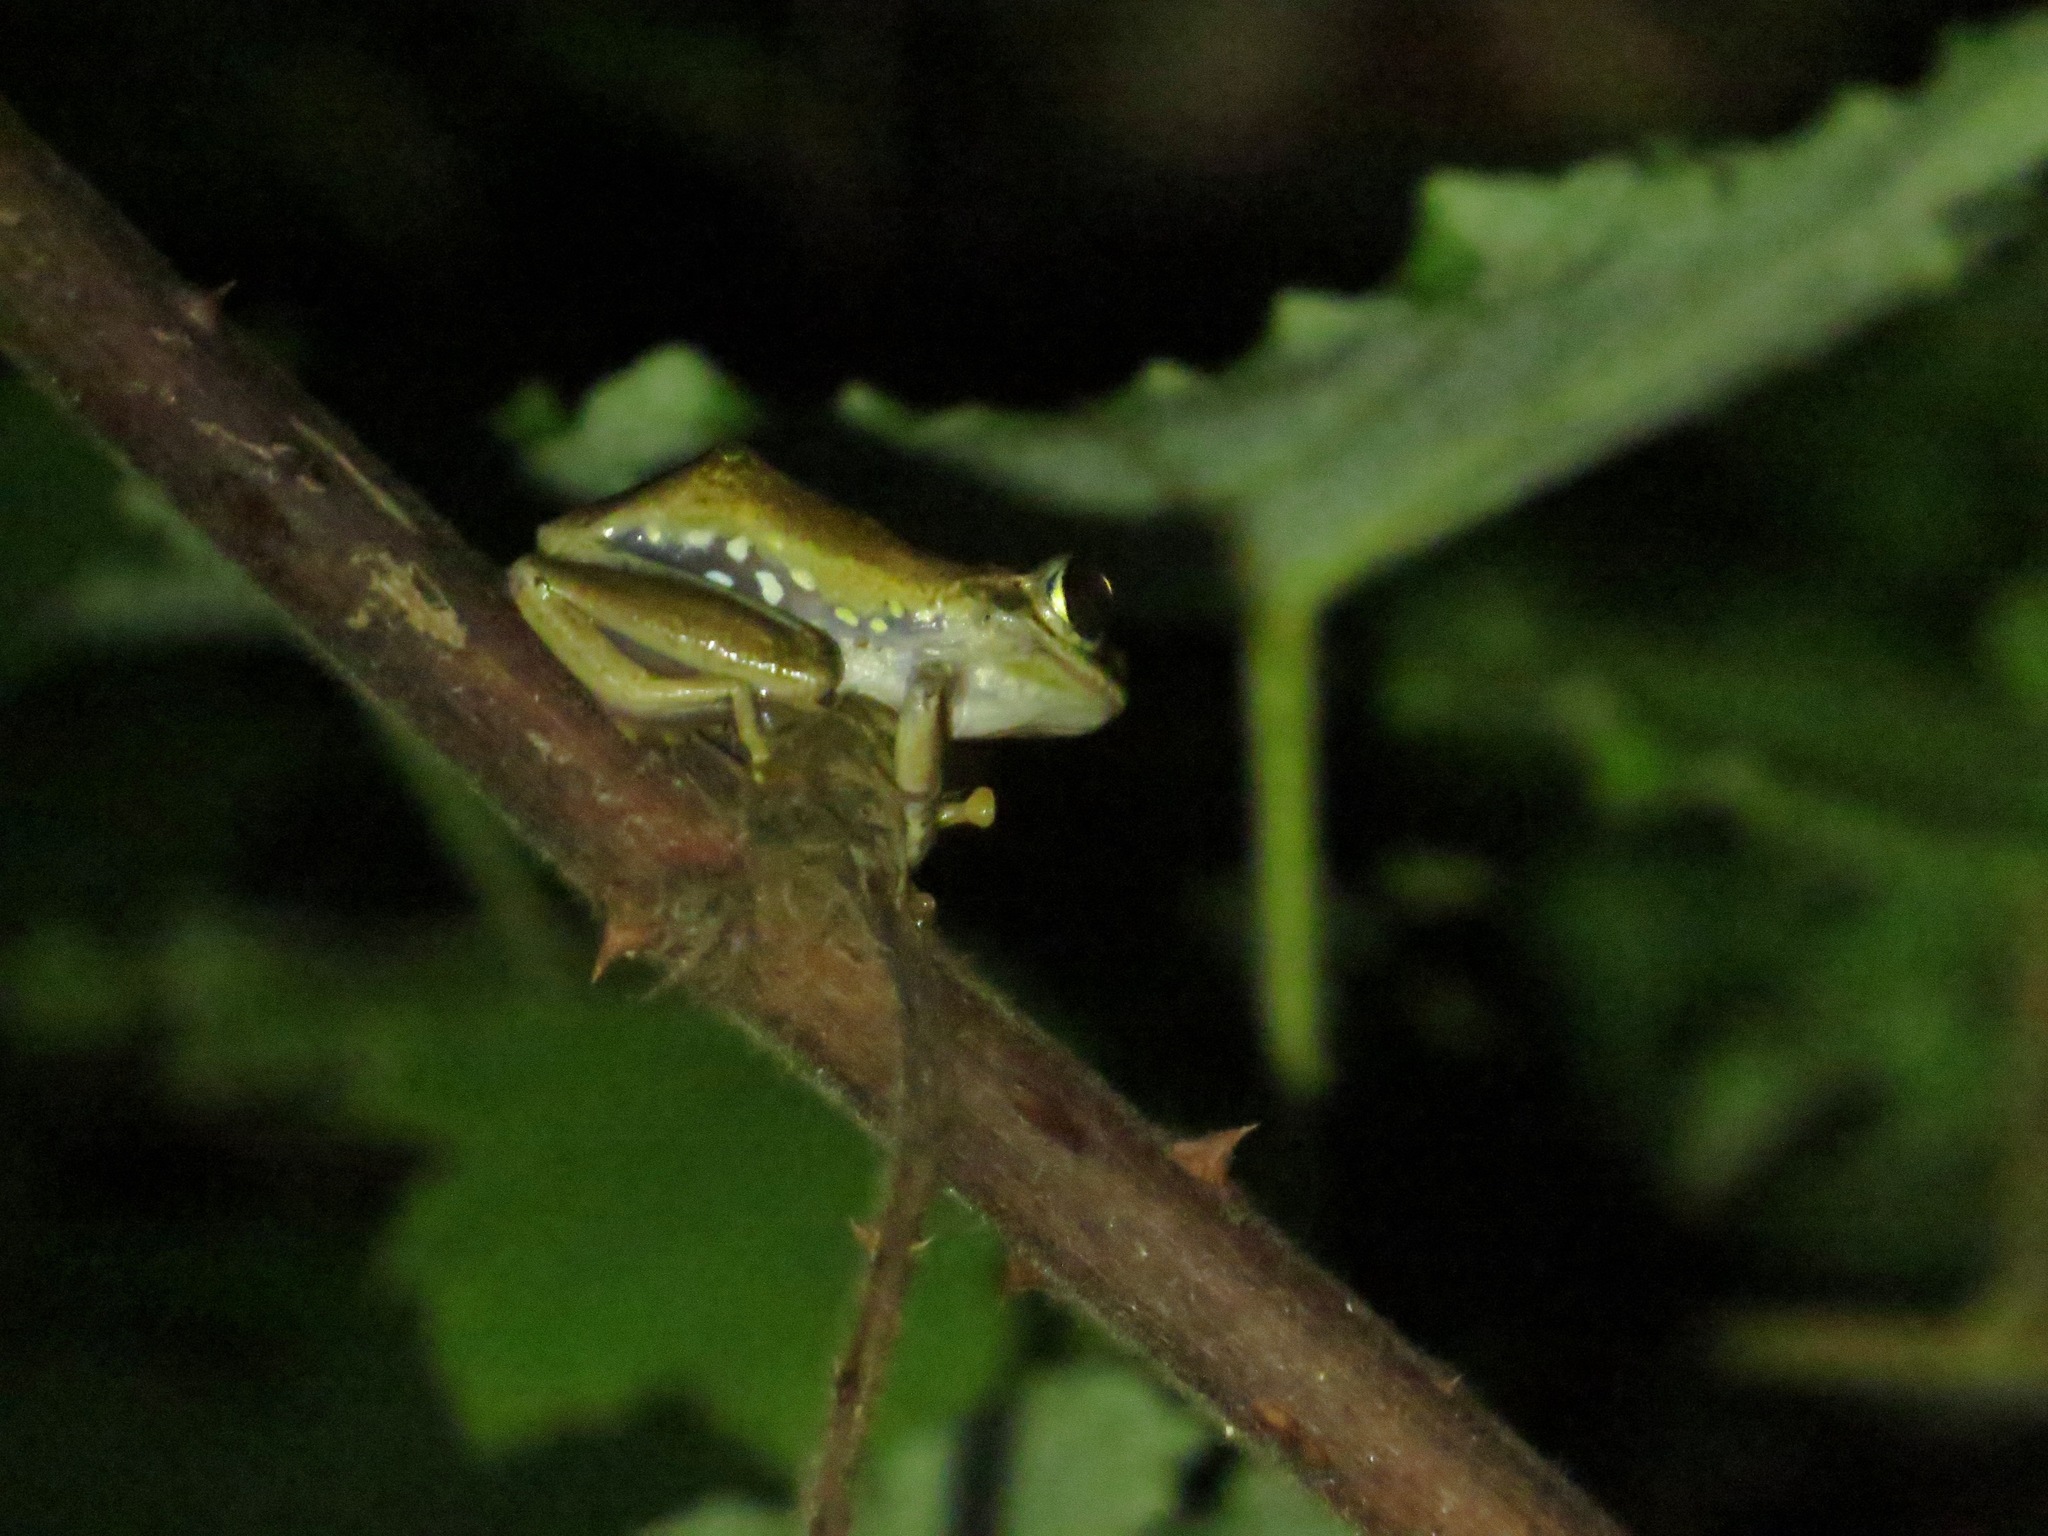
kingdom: Animalia
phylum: Chordata
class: Amphibia
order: Anura
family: Mantellidae
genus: Boophis
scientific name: Boophis idae
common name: Ida's bright-eyed frog
